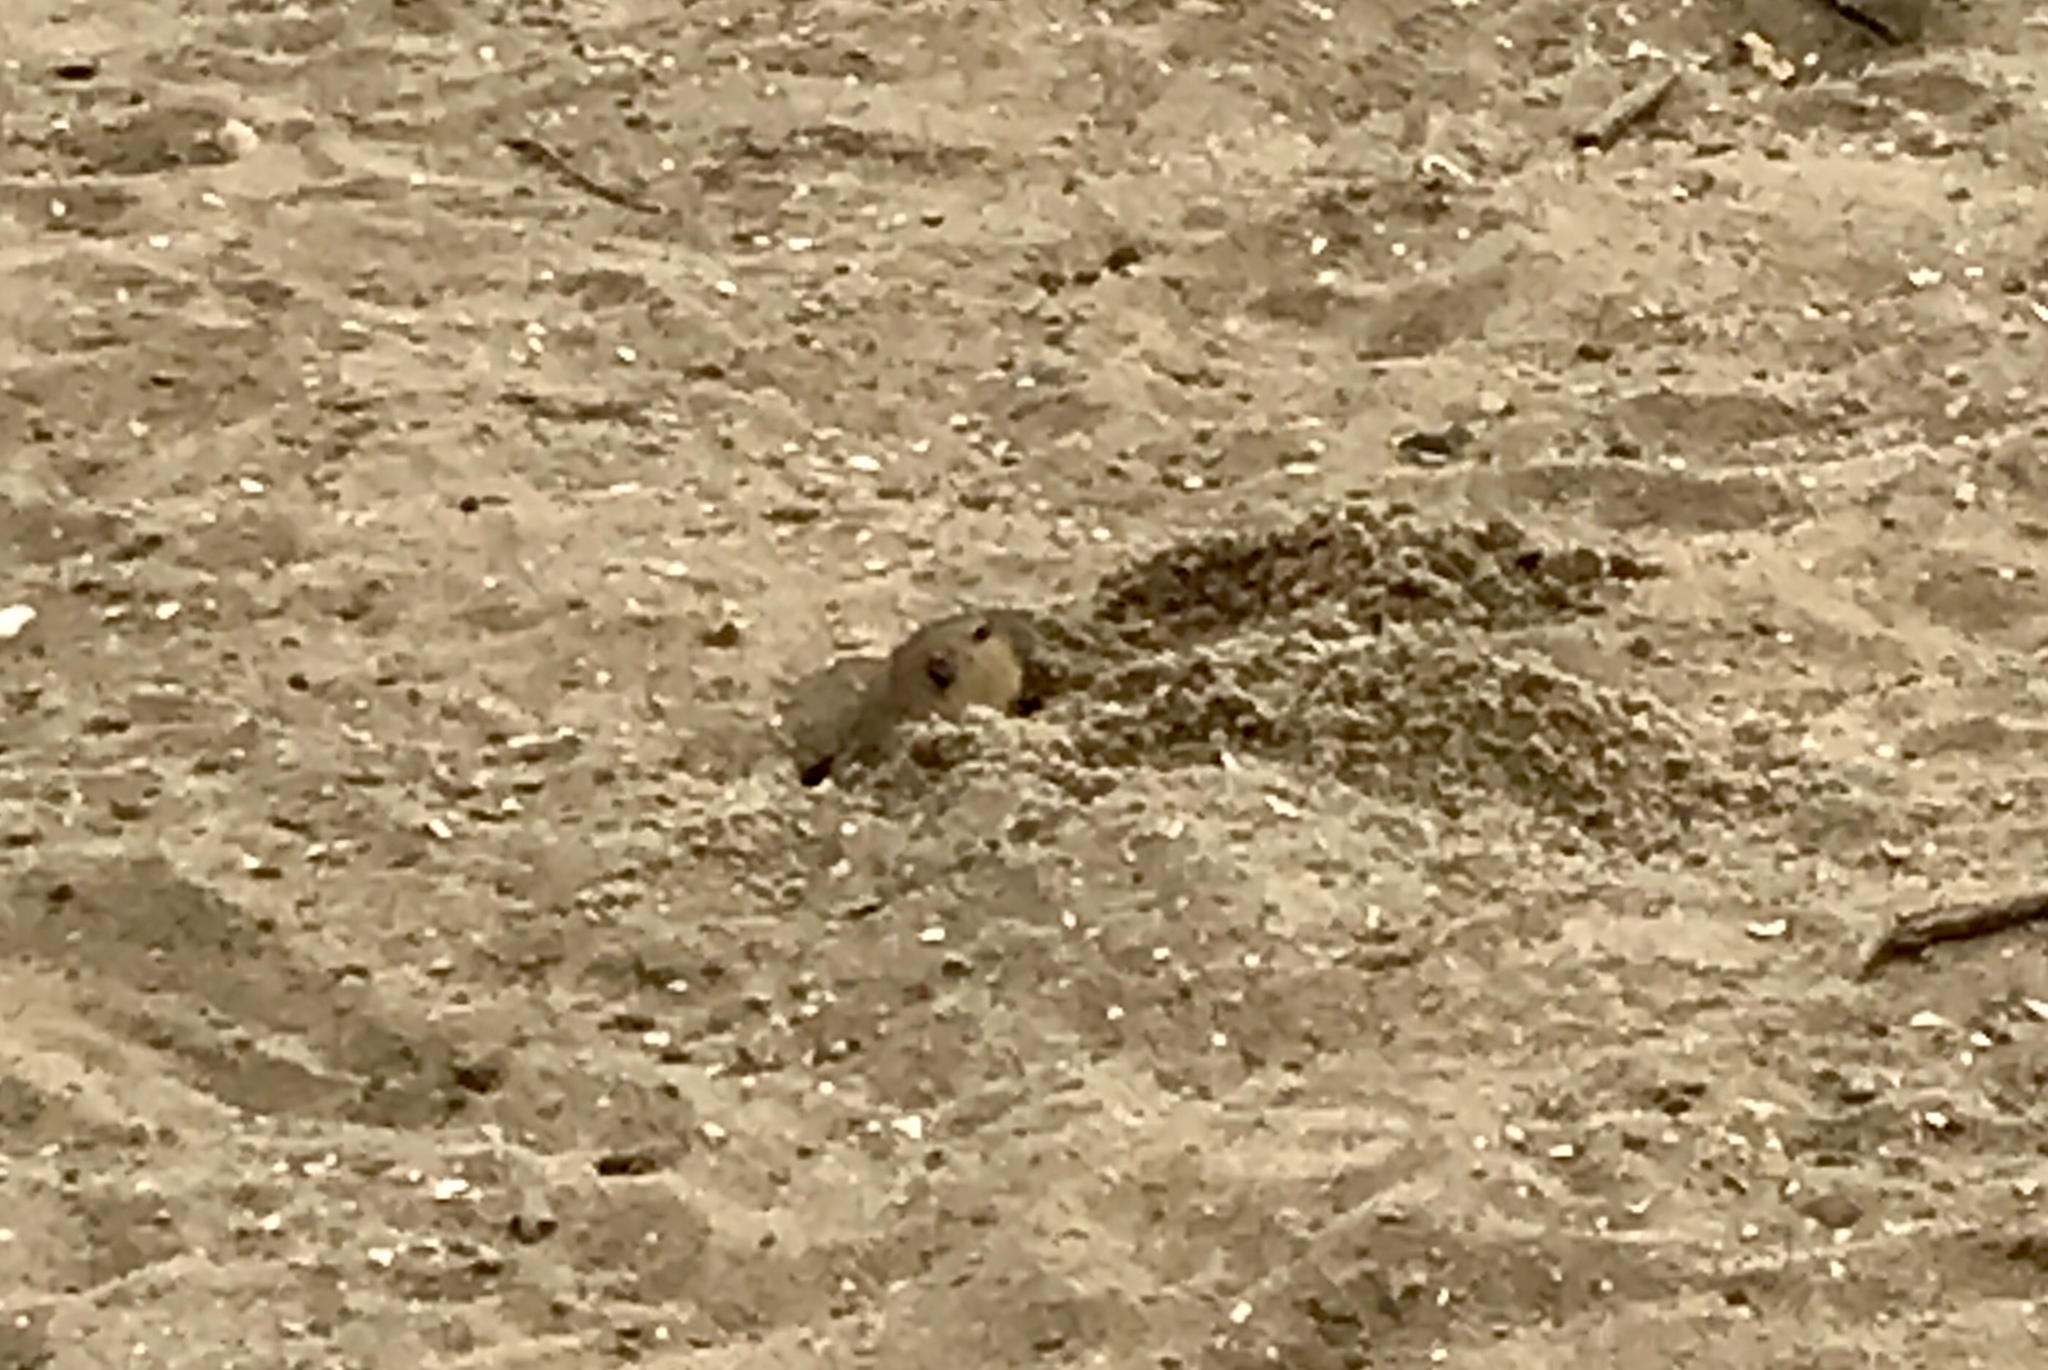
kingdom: Animalia
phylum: Chordata
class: Mammalia
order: Rodentia
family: Geomyidae
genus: Thomomys
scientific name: Thomomys bottae
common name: Botta's pocket gopher
